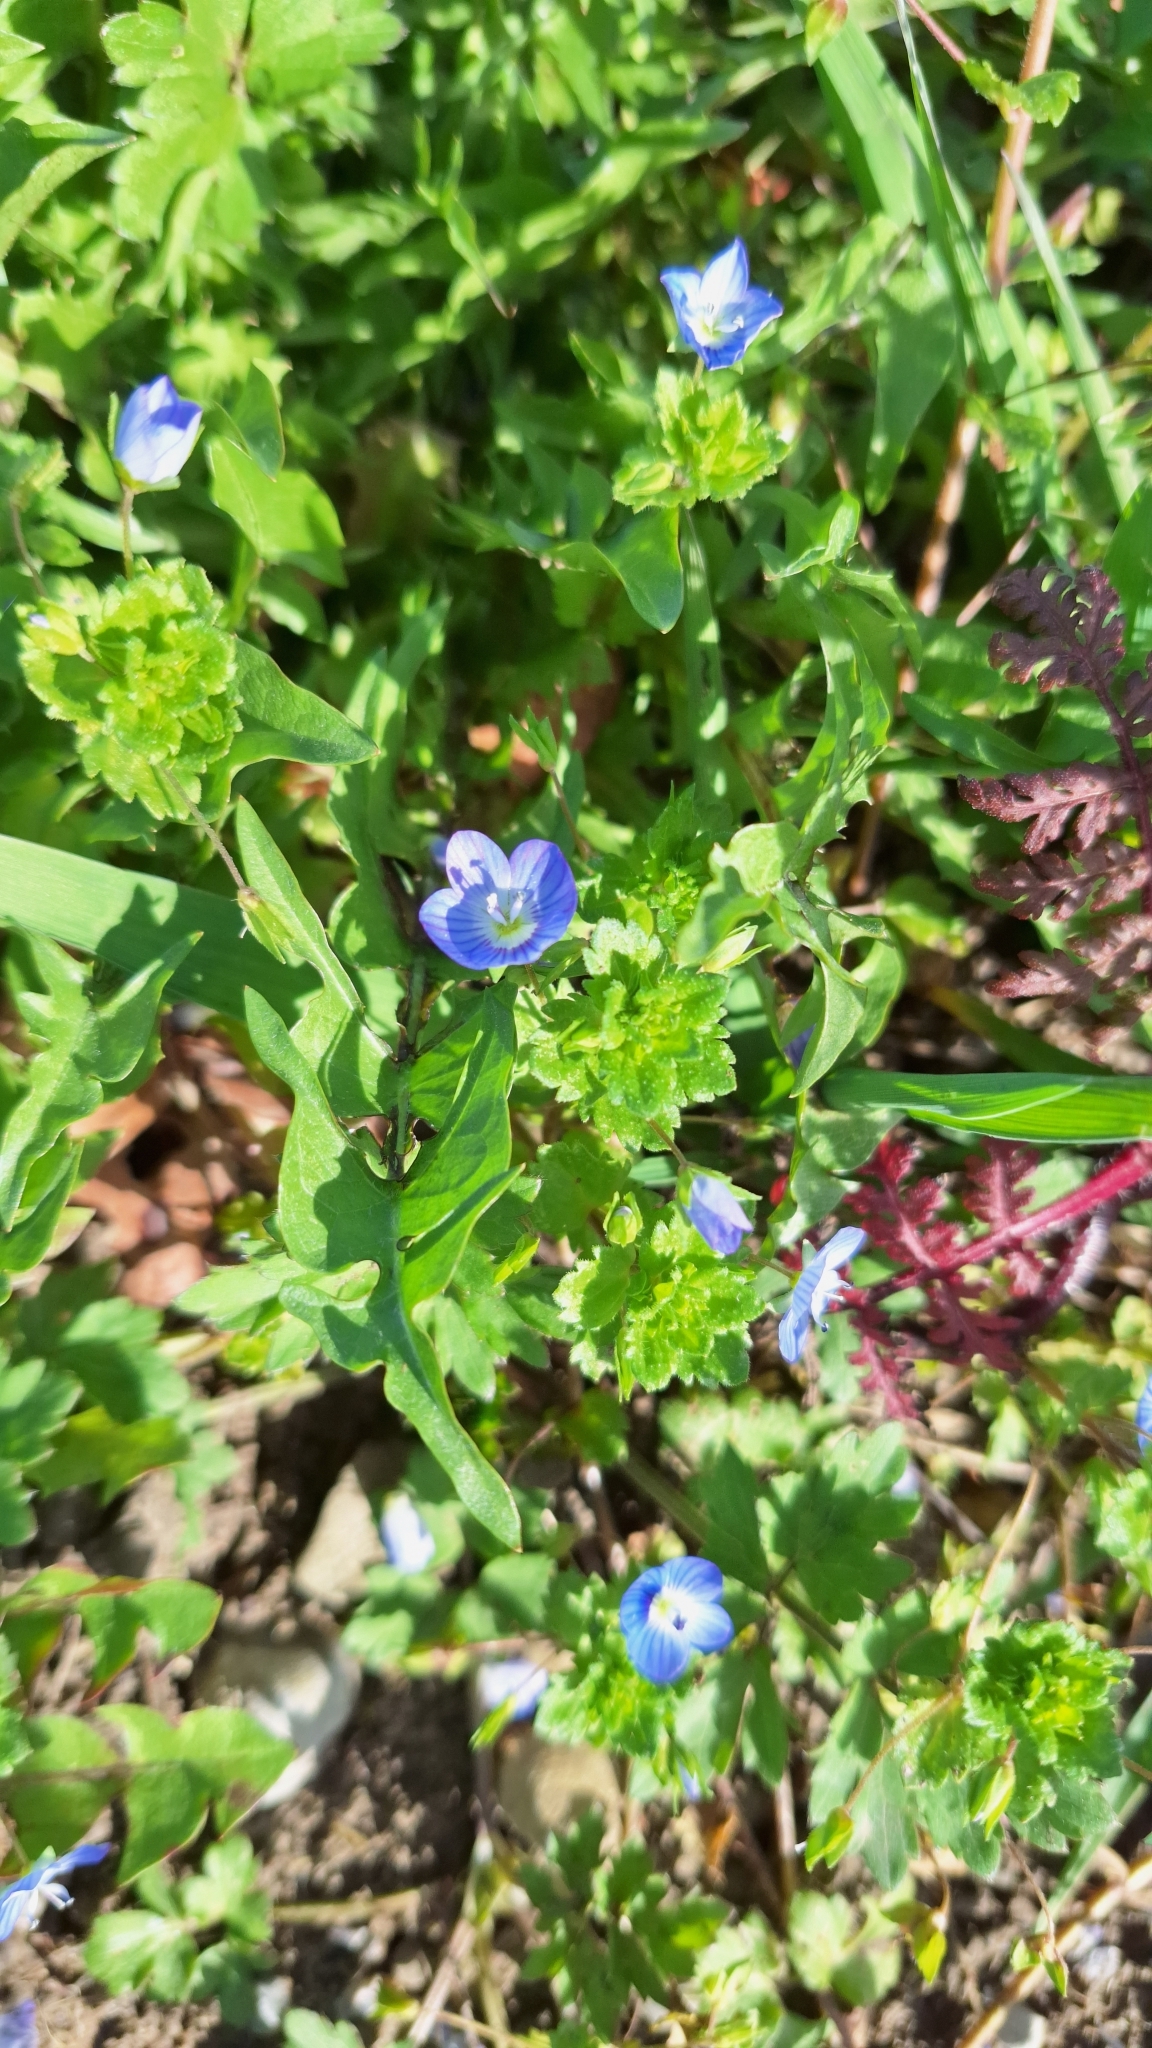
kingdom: Plantae
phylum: Tracheophyta
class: Magnoliopsida
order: Lamiales
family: Plantaginaceae
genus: Veronica
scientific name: Veronica persica
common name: Common field-speedwell
